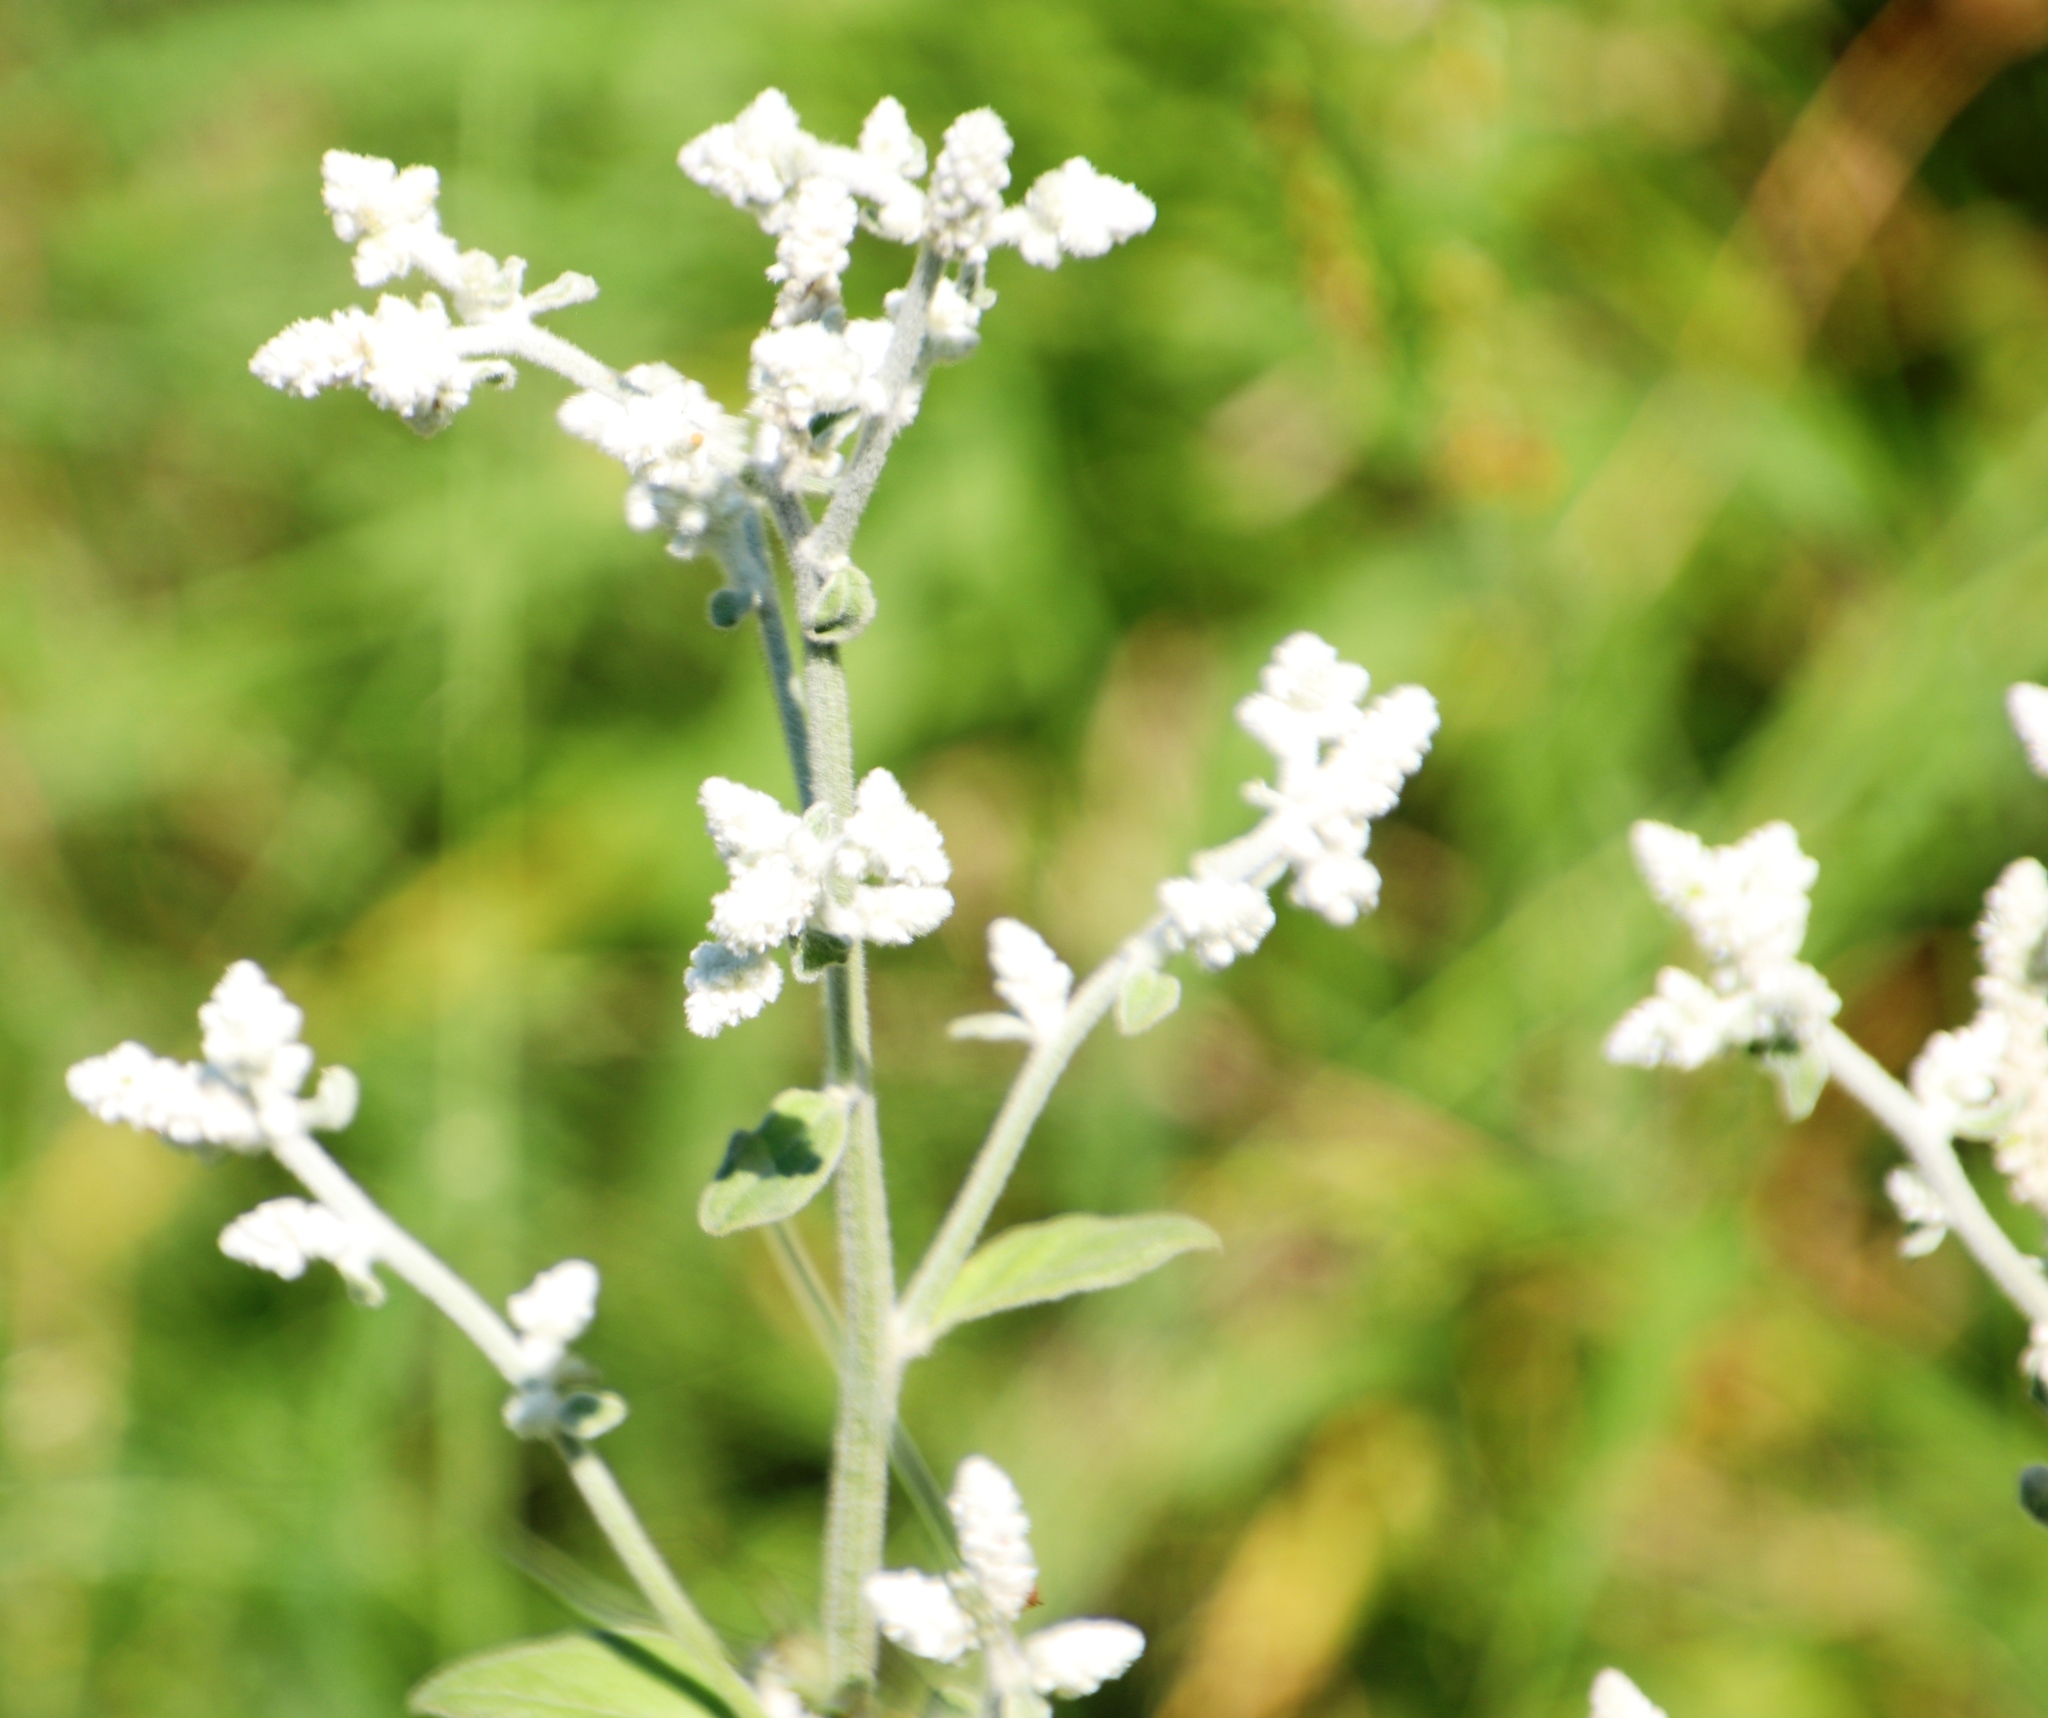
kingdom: Plantae
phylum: Tracheophyta
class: Magnoliopsida
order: Caryophyllales
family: Amaranthaceae
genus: Ouret
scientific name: Ouret leucura
